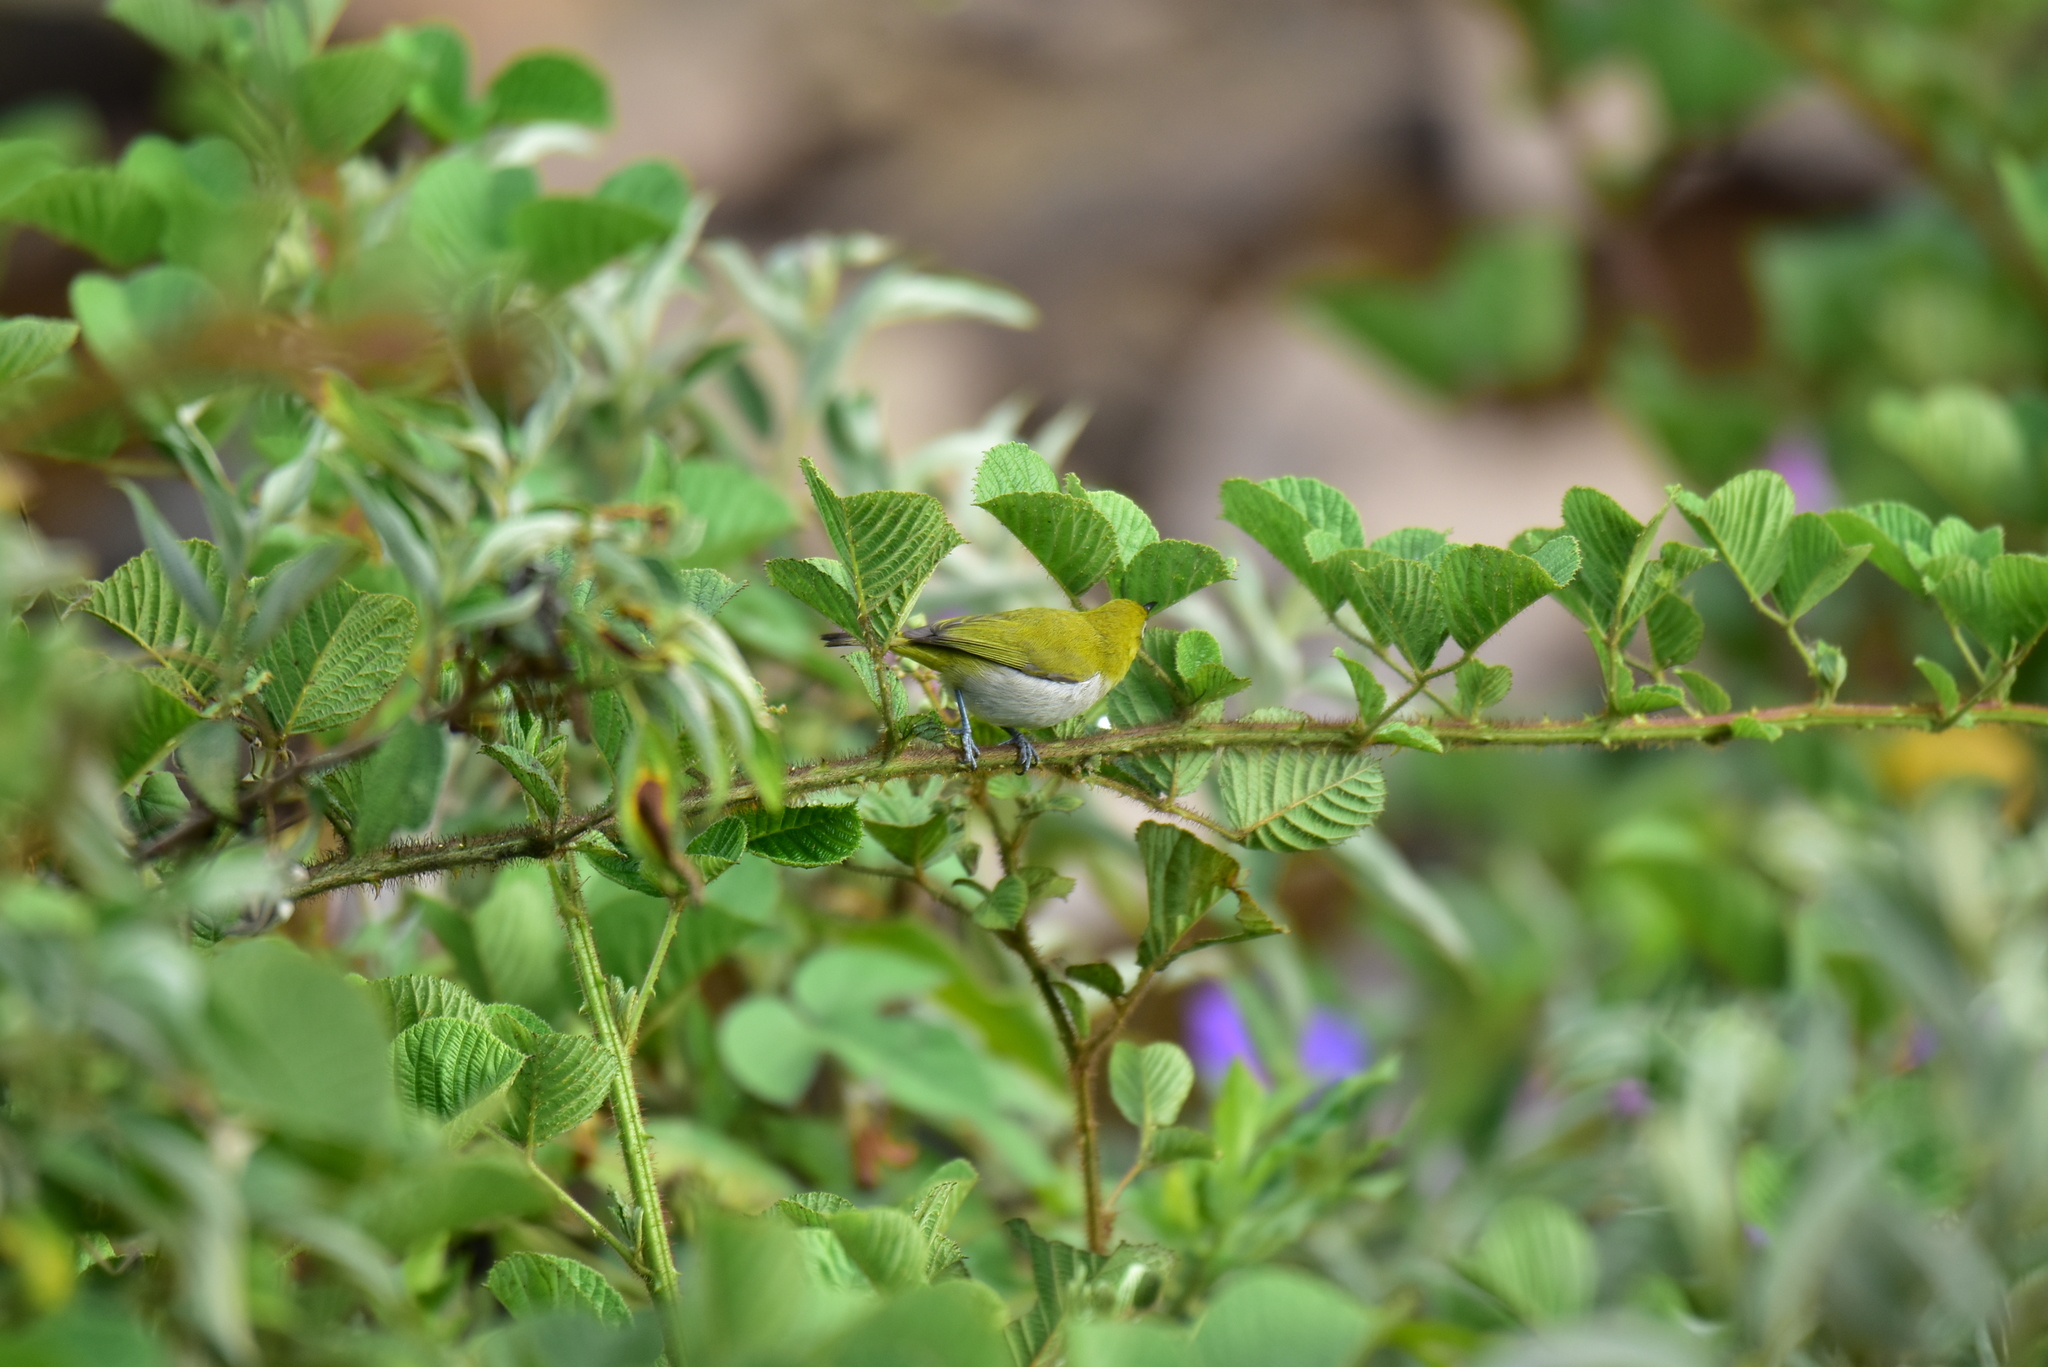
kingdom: Animalia
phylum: Chordata
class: Aves
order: Passeriformes
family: Zosteropidae
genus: Zosterops
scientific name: Zosterops palpebrosus
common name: Oriental white-eye
